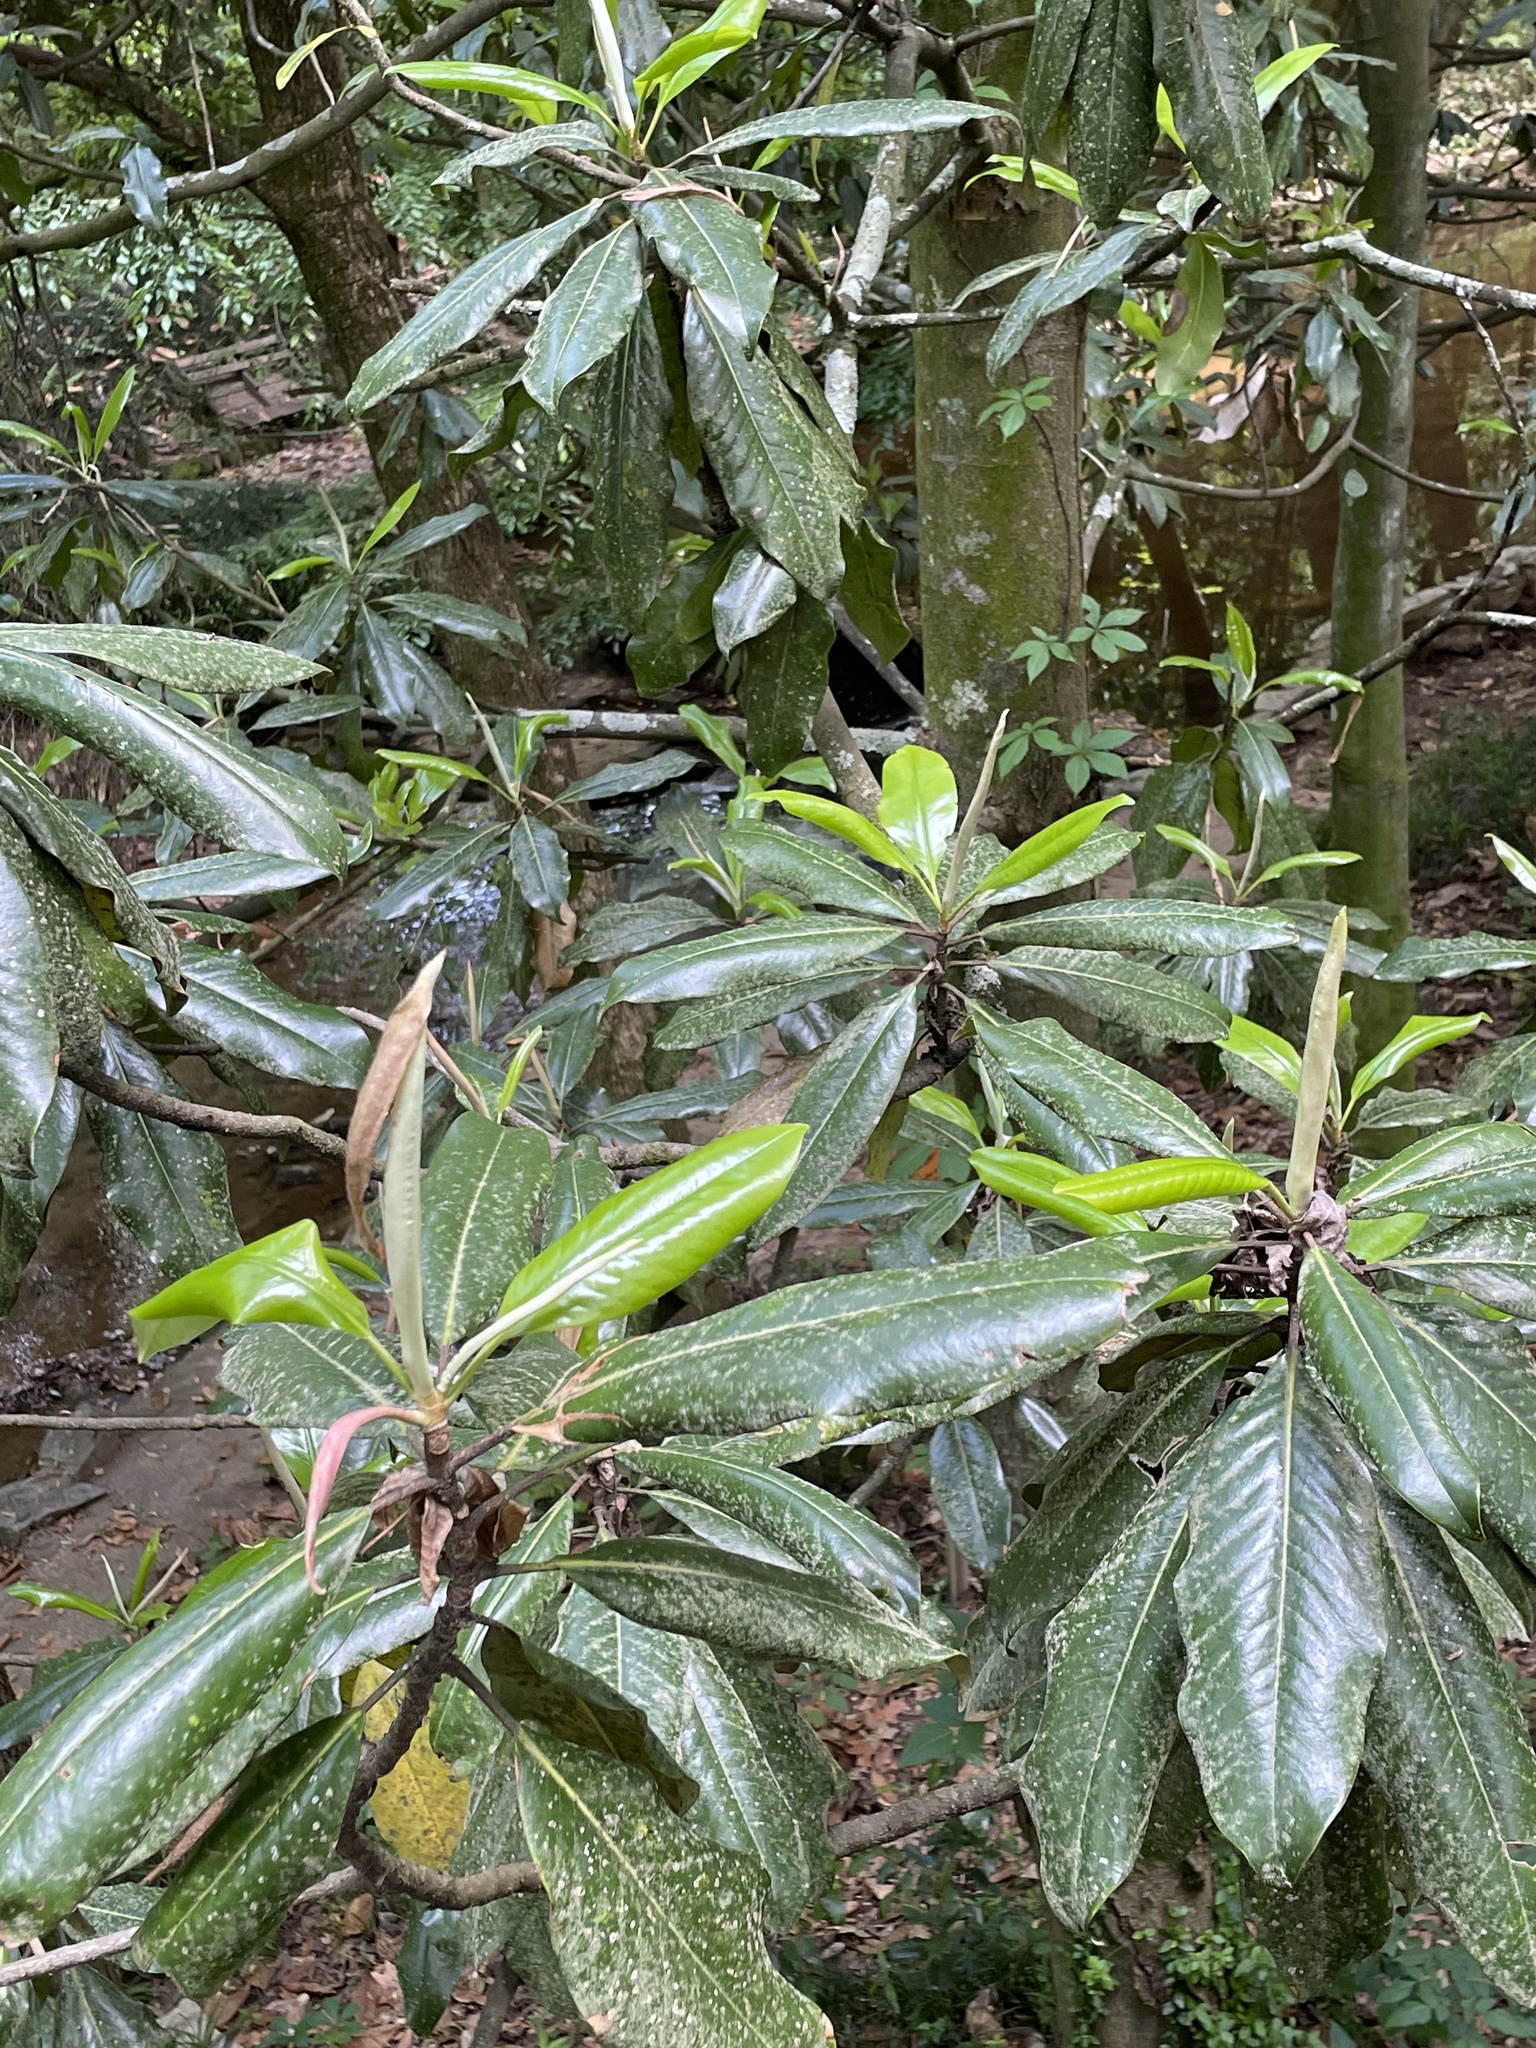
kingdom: Plantae
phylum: Tracheophyta
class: Magnoliopsida
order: Magnoliales
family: Magnoliaceae
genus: Magnolia
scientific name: Magnolia grandiflora
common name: Southern magnolia
